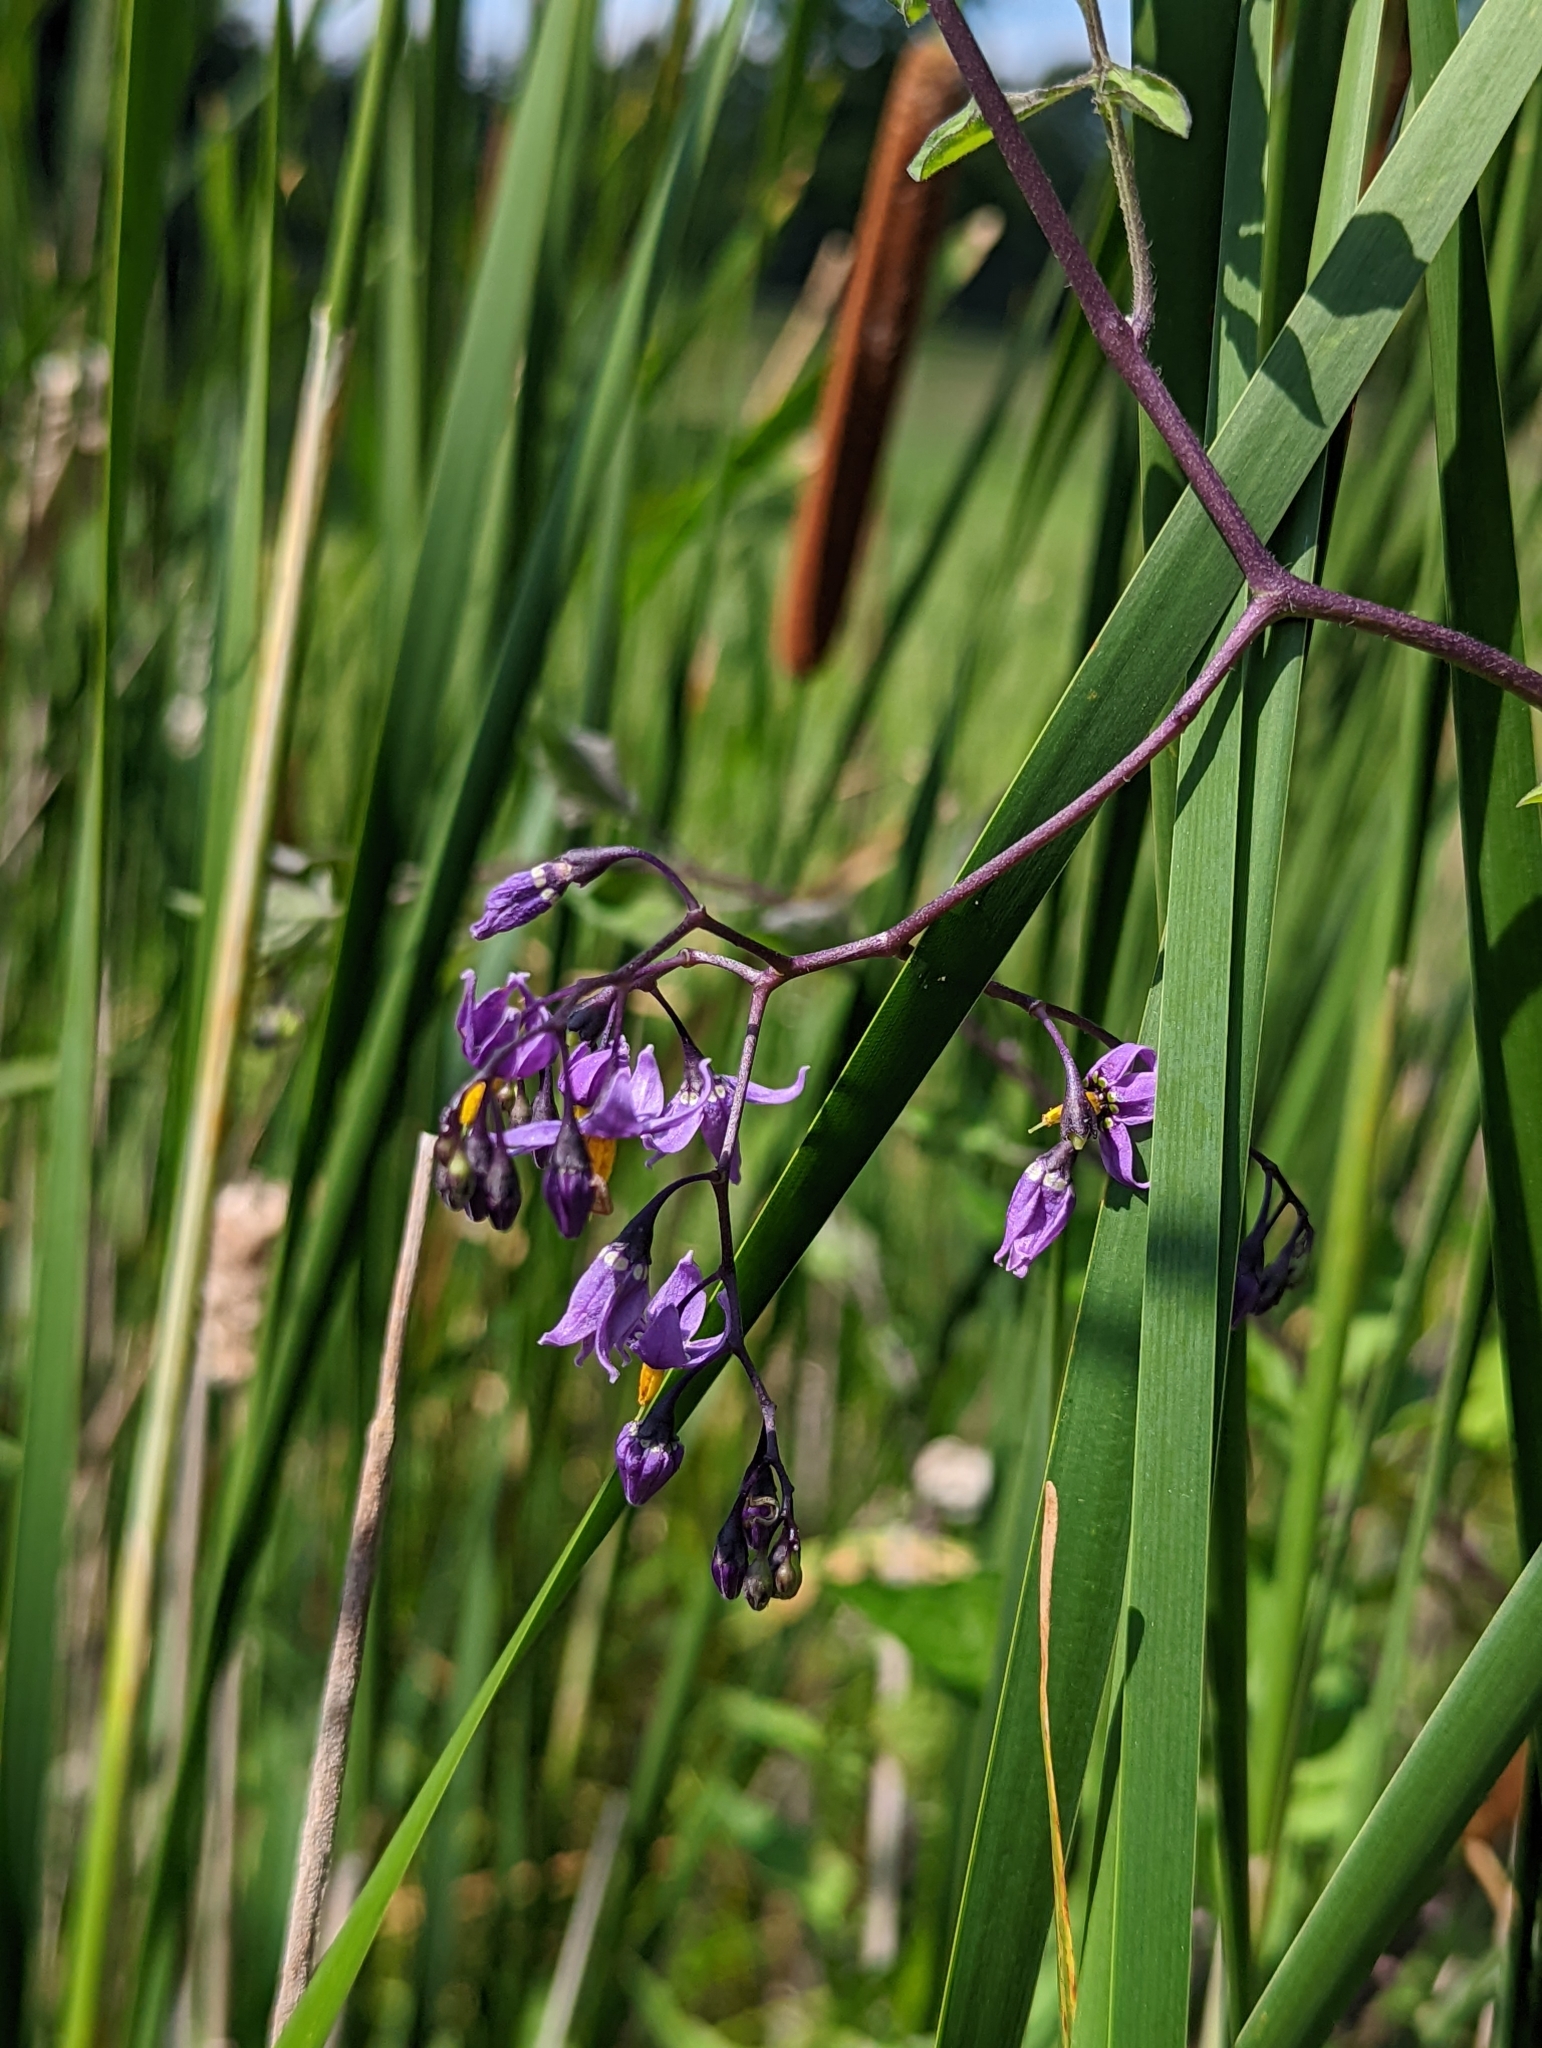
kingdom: Plantae
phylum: Tracheophyta
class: Magnoliopsida
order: Solanales
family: Solanaceae
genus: Solanum
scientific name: Solanum dulcamara
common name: Climbing nightshade
